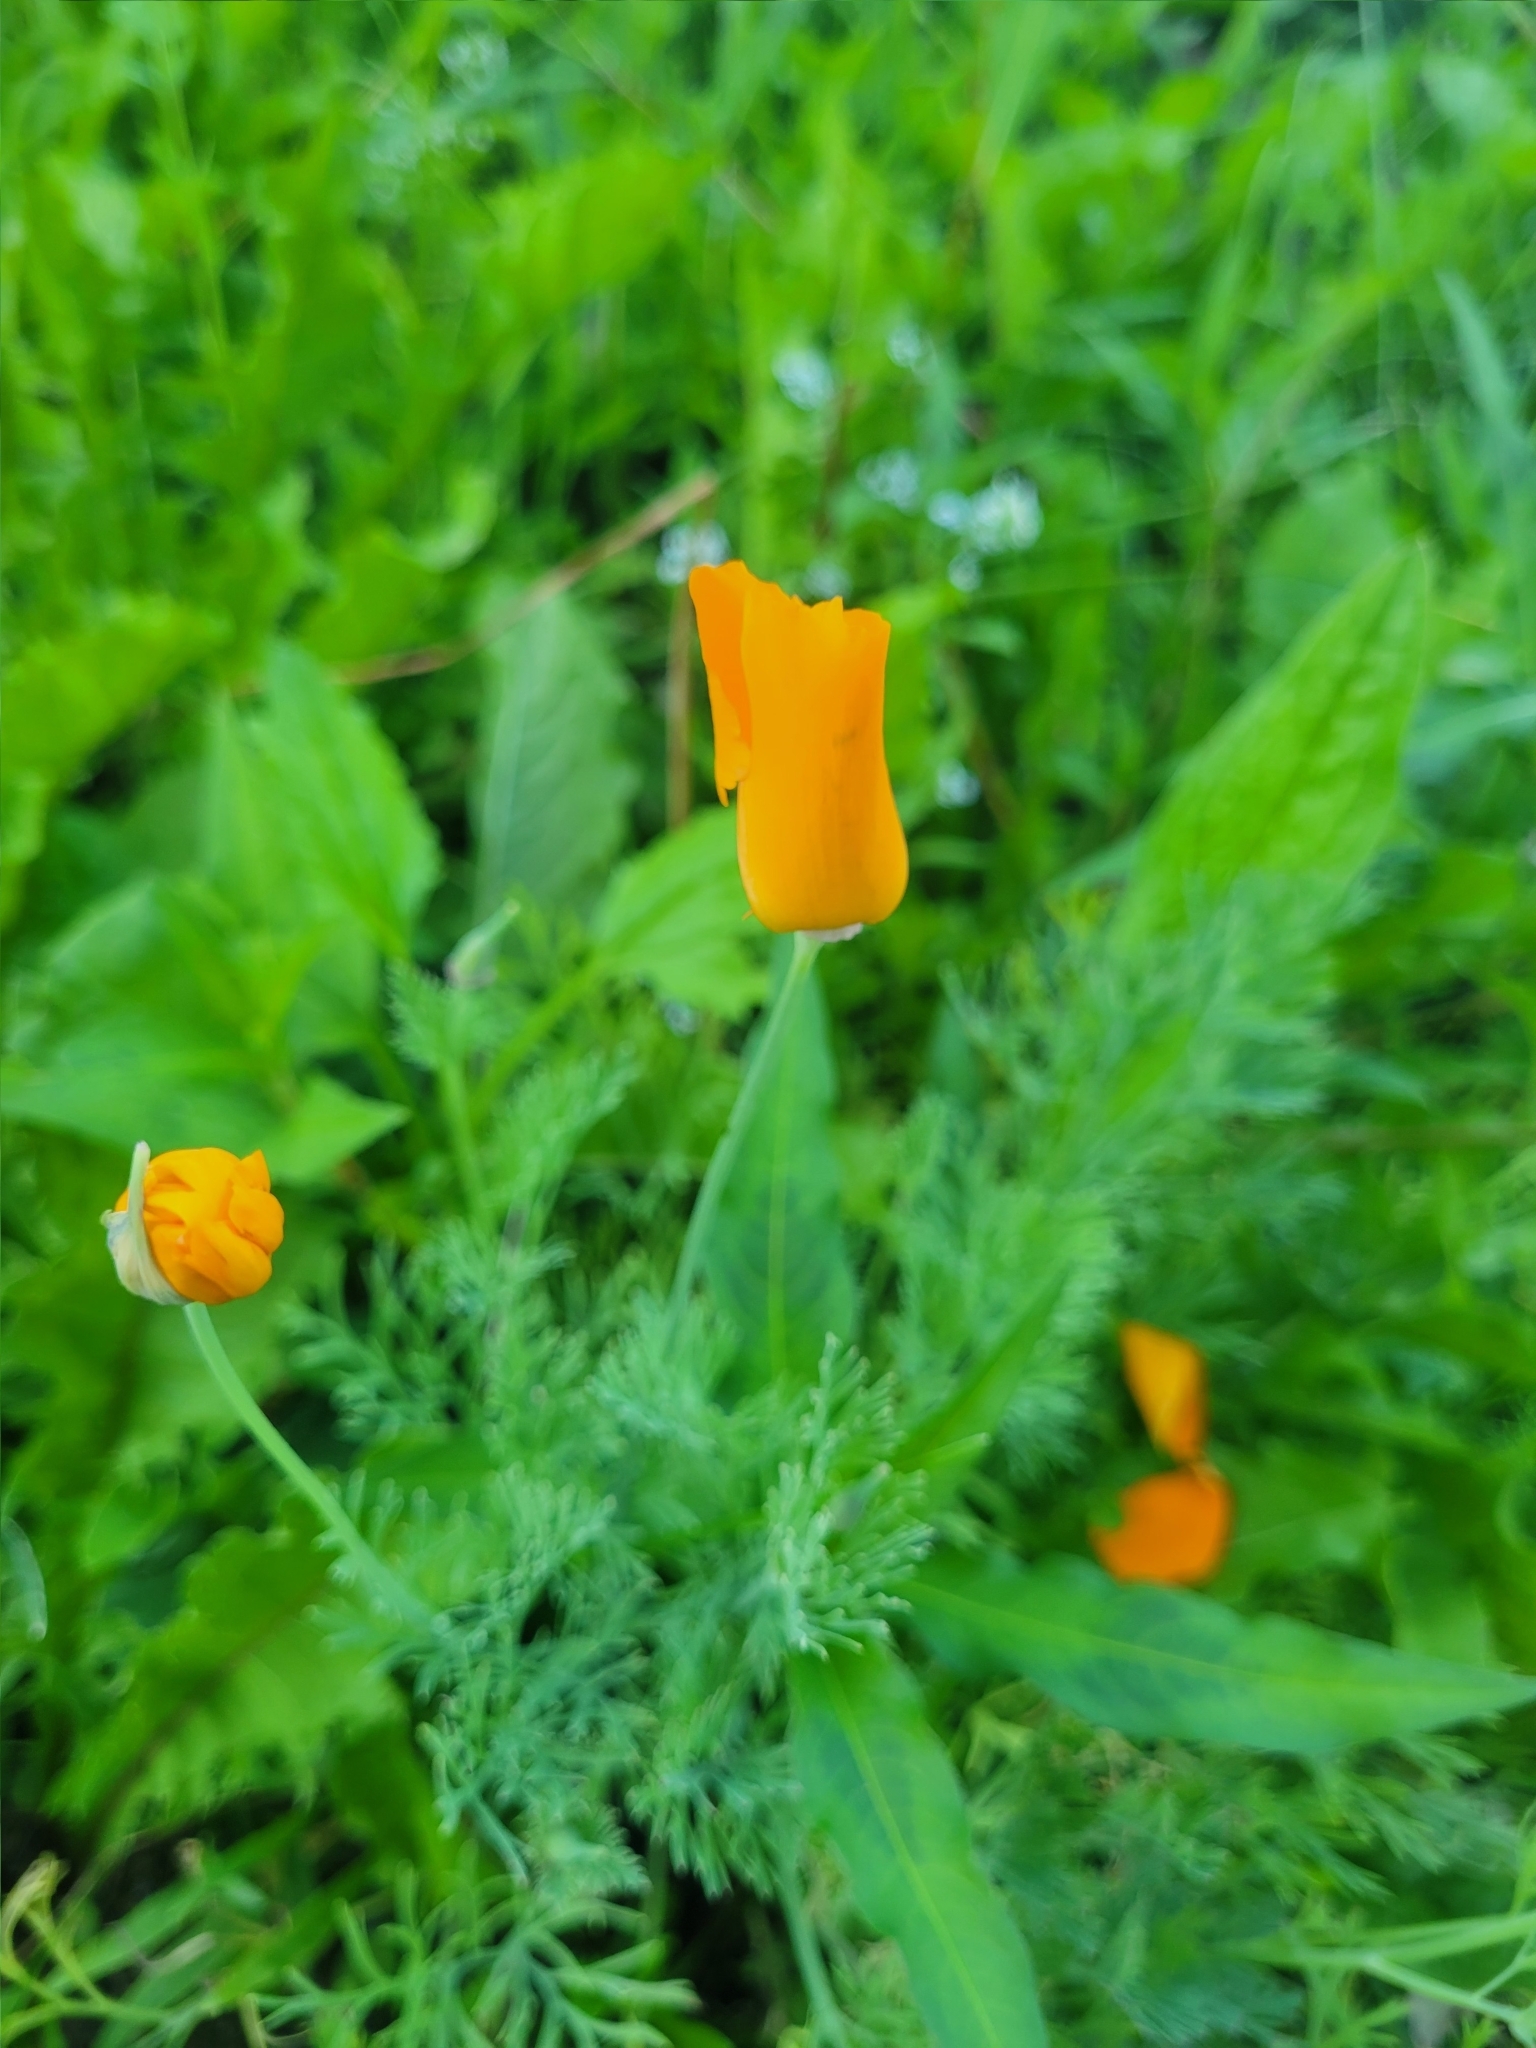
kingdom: Plantae
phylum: Tracheophyta
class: Magnoliopsida
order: Ranunculales
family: Papaveraceae
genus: Eschscholzia
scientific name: Eschscholzia californica
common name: California poppy
